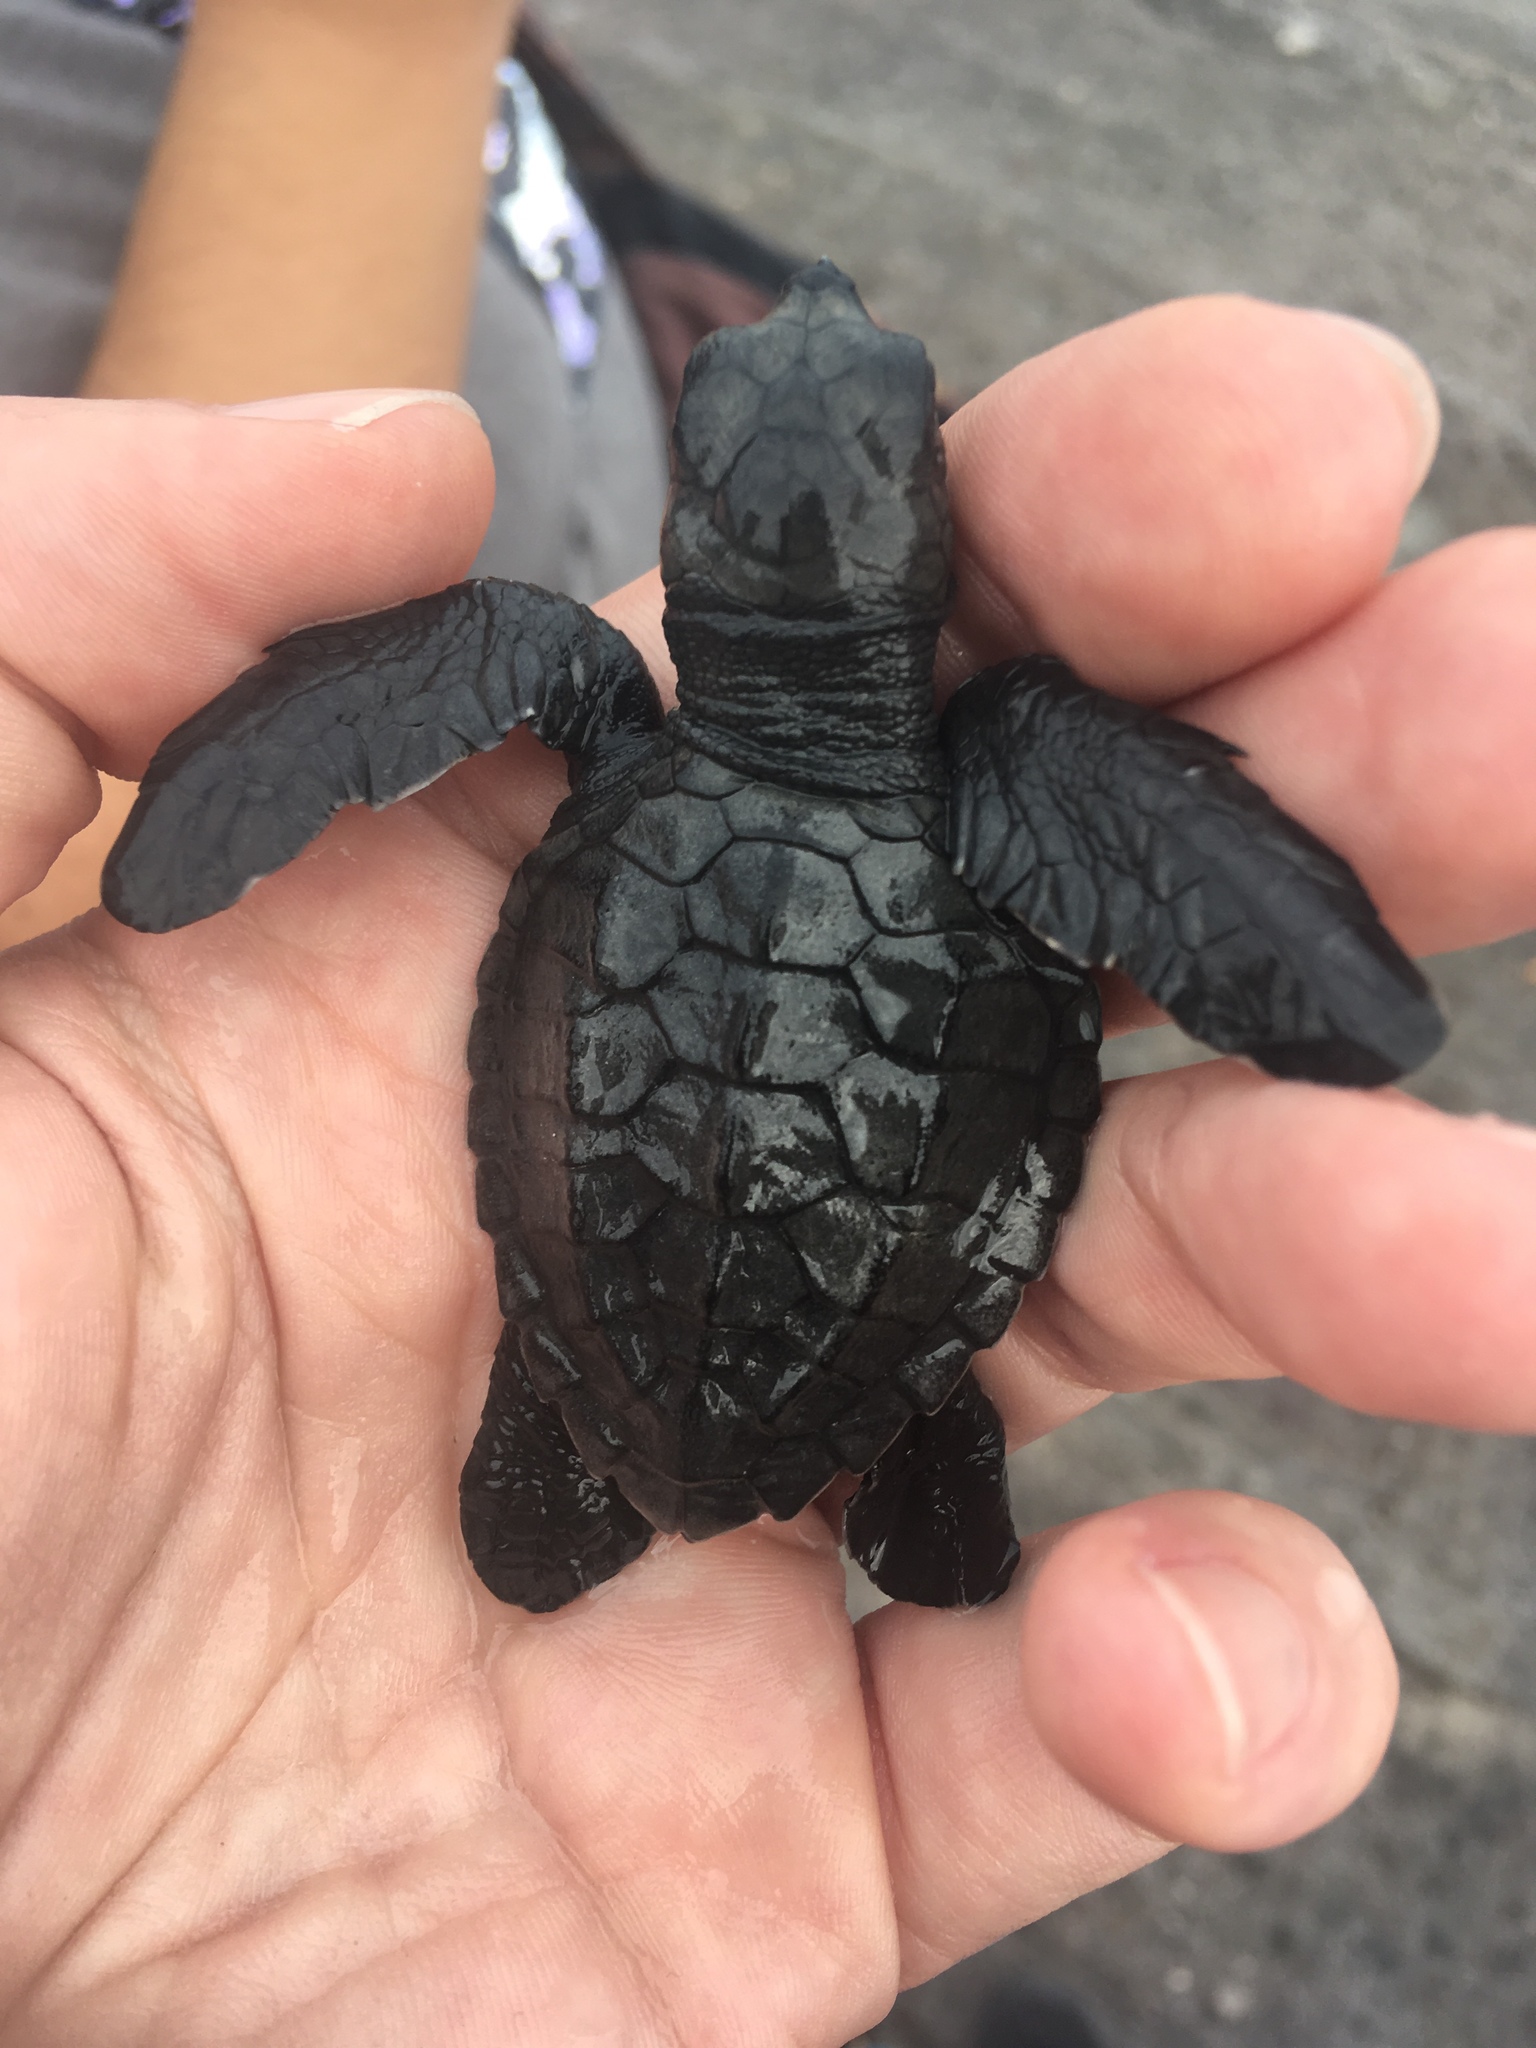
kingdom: Animalia
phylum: Chordata
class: Testudines
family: Cheloniidae
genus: Lepidochelys
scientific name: Lepidochelys olivacea
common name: Olive ridley
